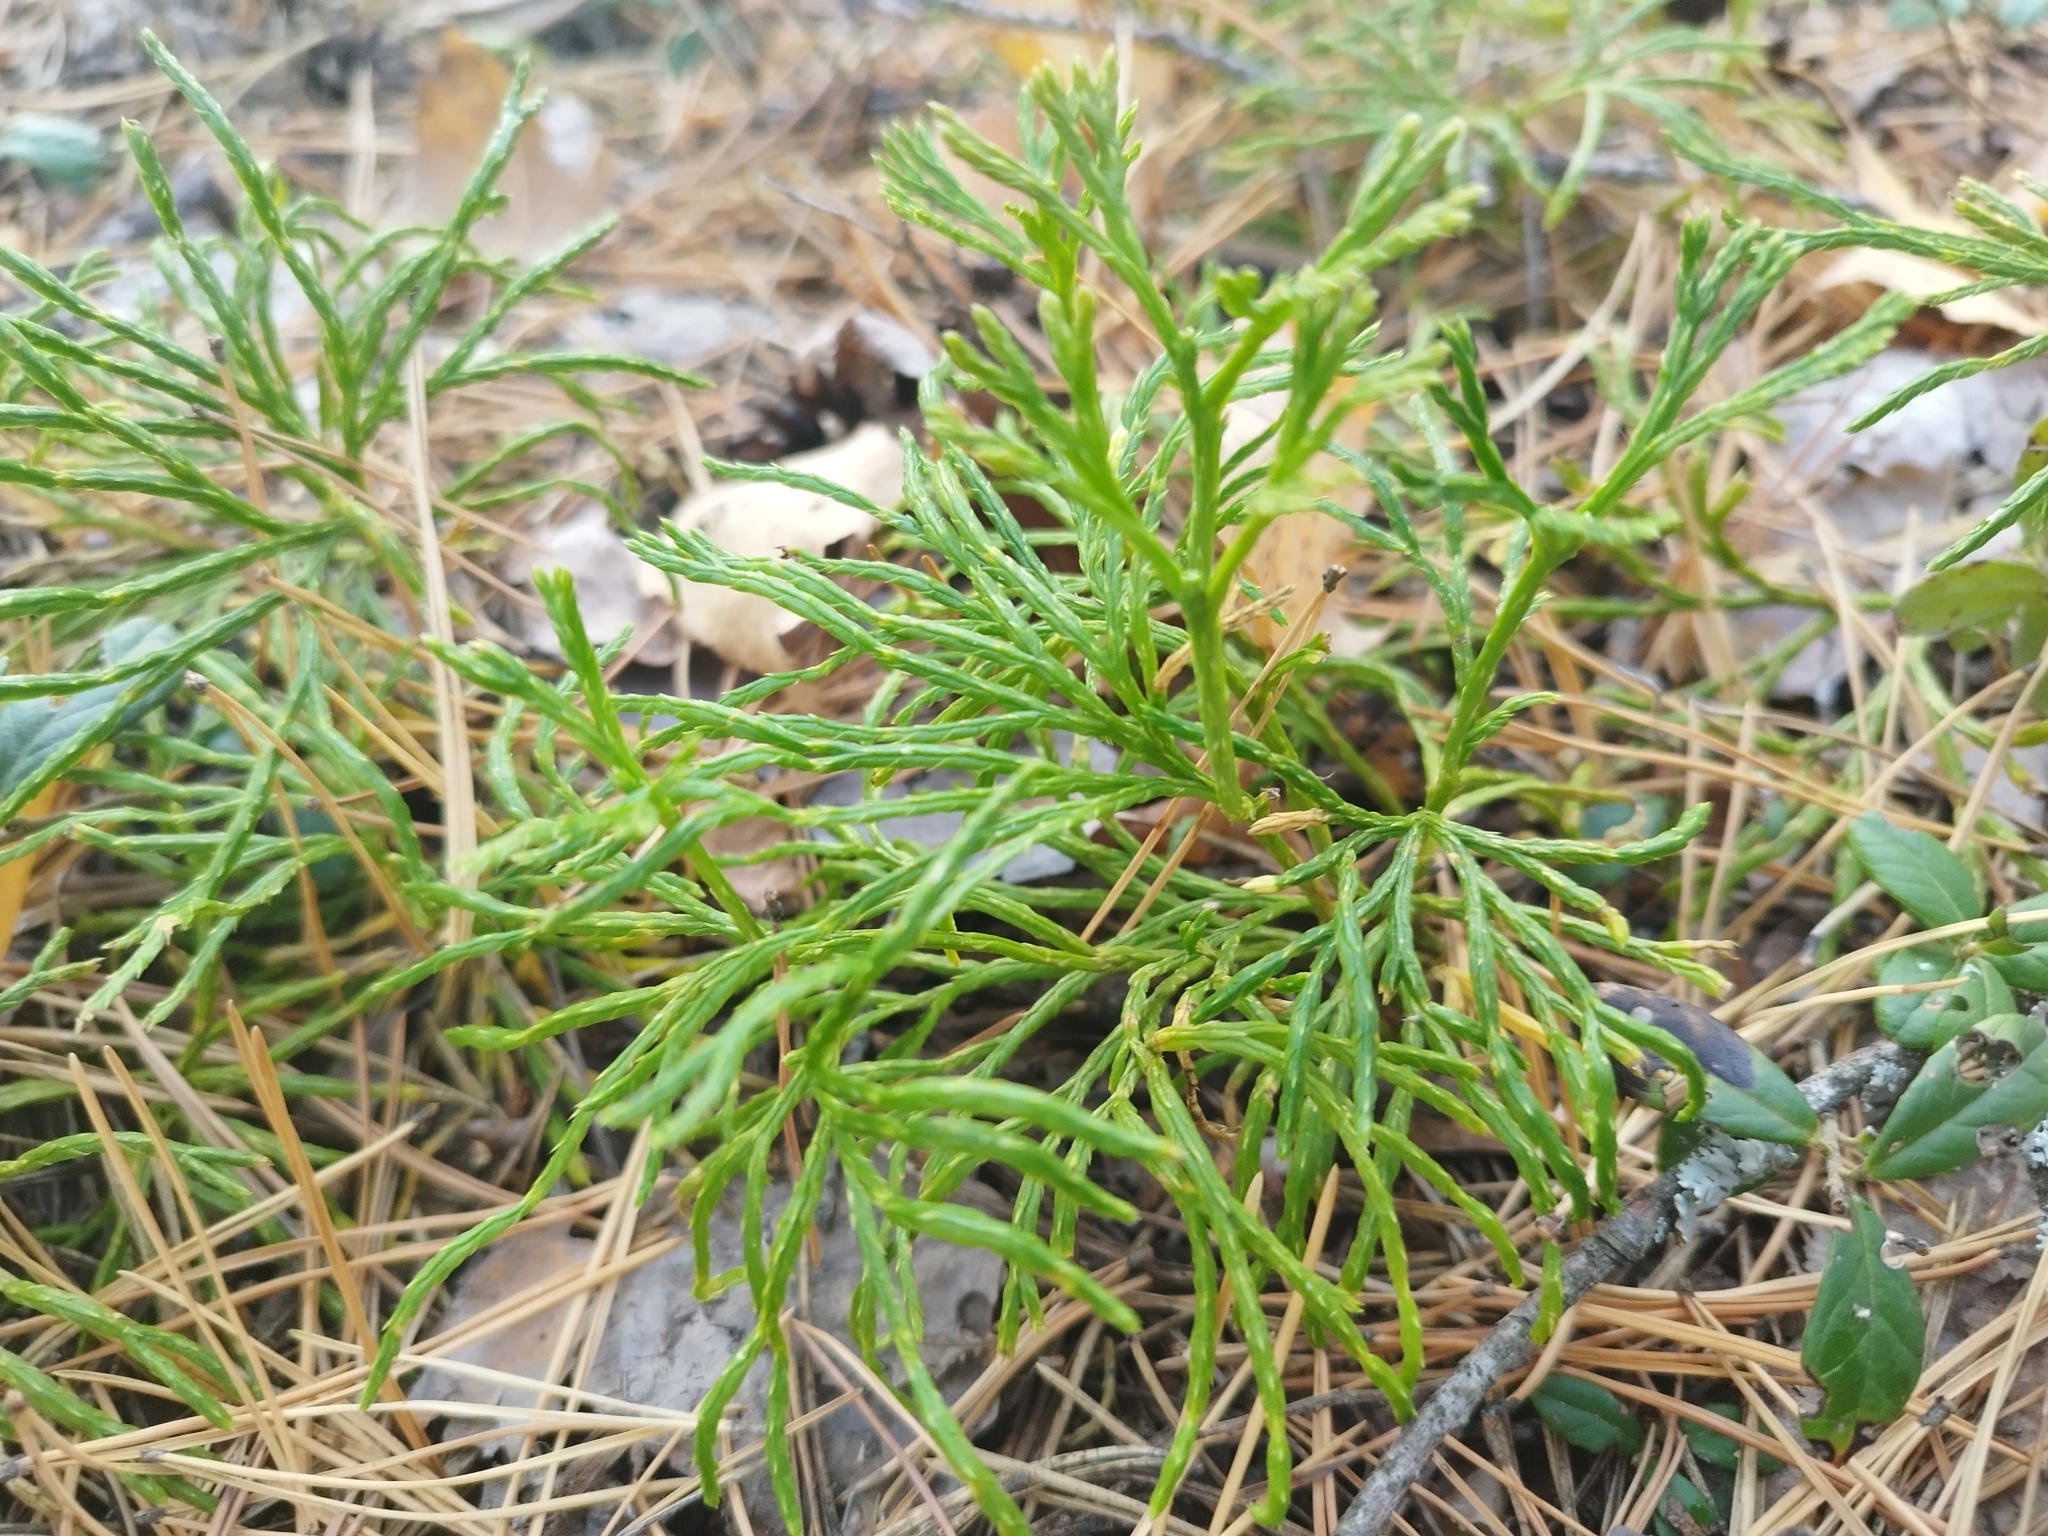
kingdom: Plantae
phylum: Tracheophyta
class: Lycopodiopsida
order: Lycopodiales
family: Lycopodiaceae
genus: Diphasiastrum
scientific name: Diphasiastrum complanatum
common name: Northern running-pine
